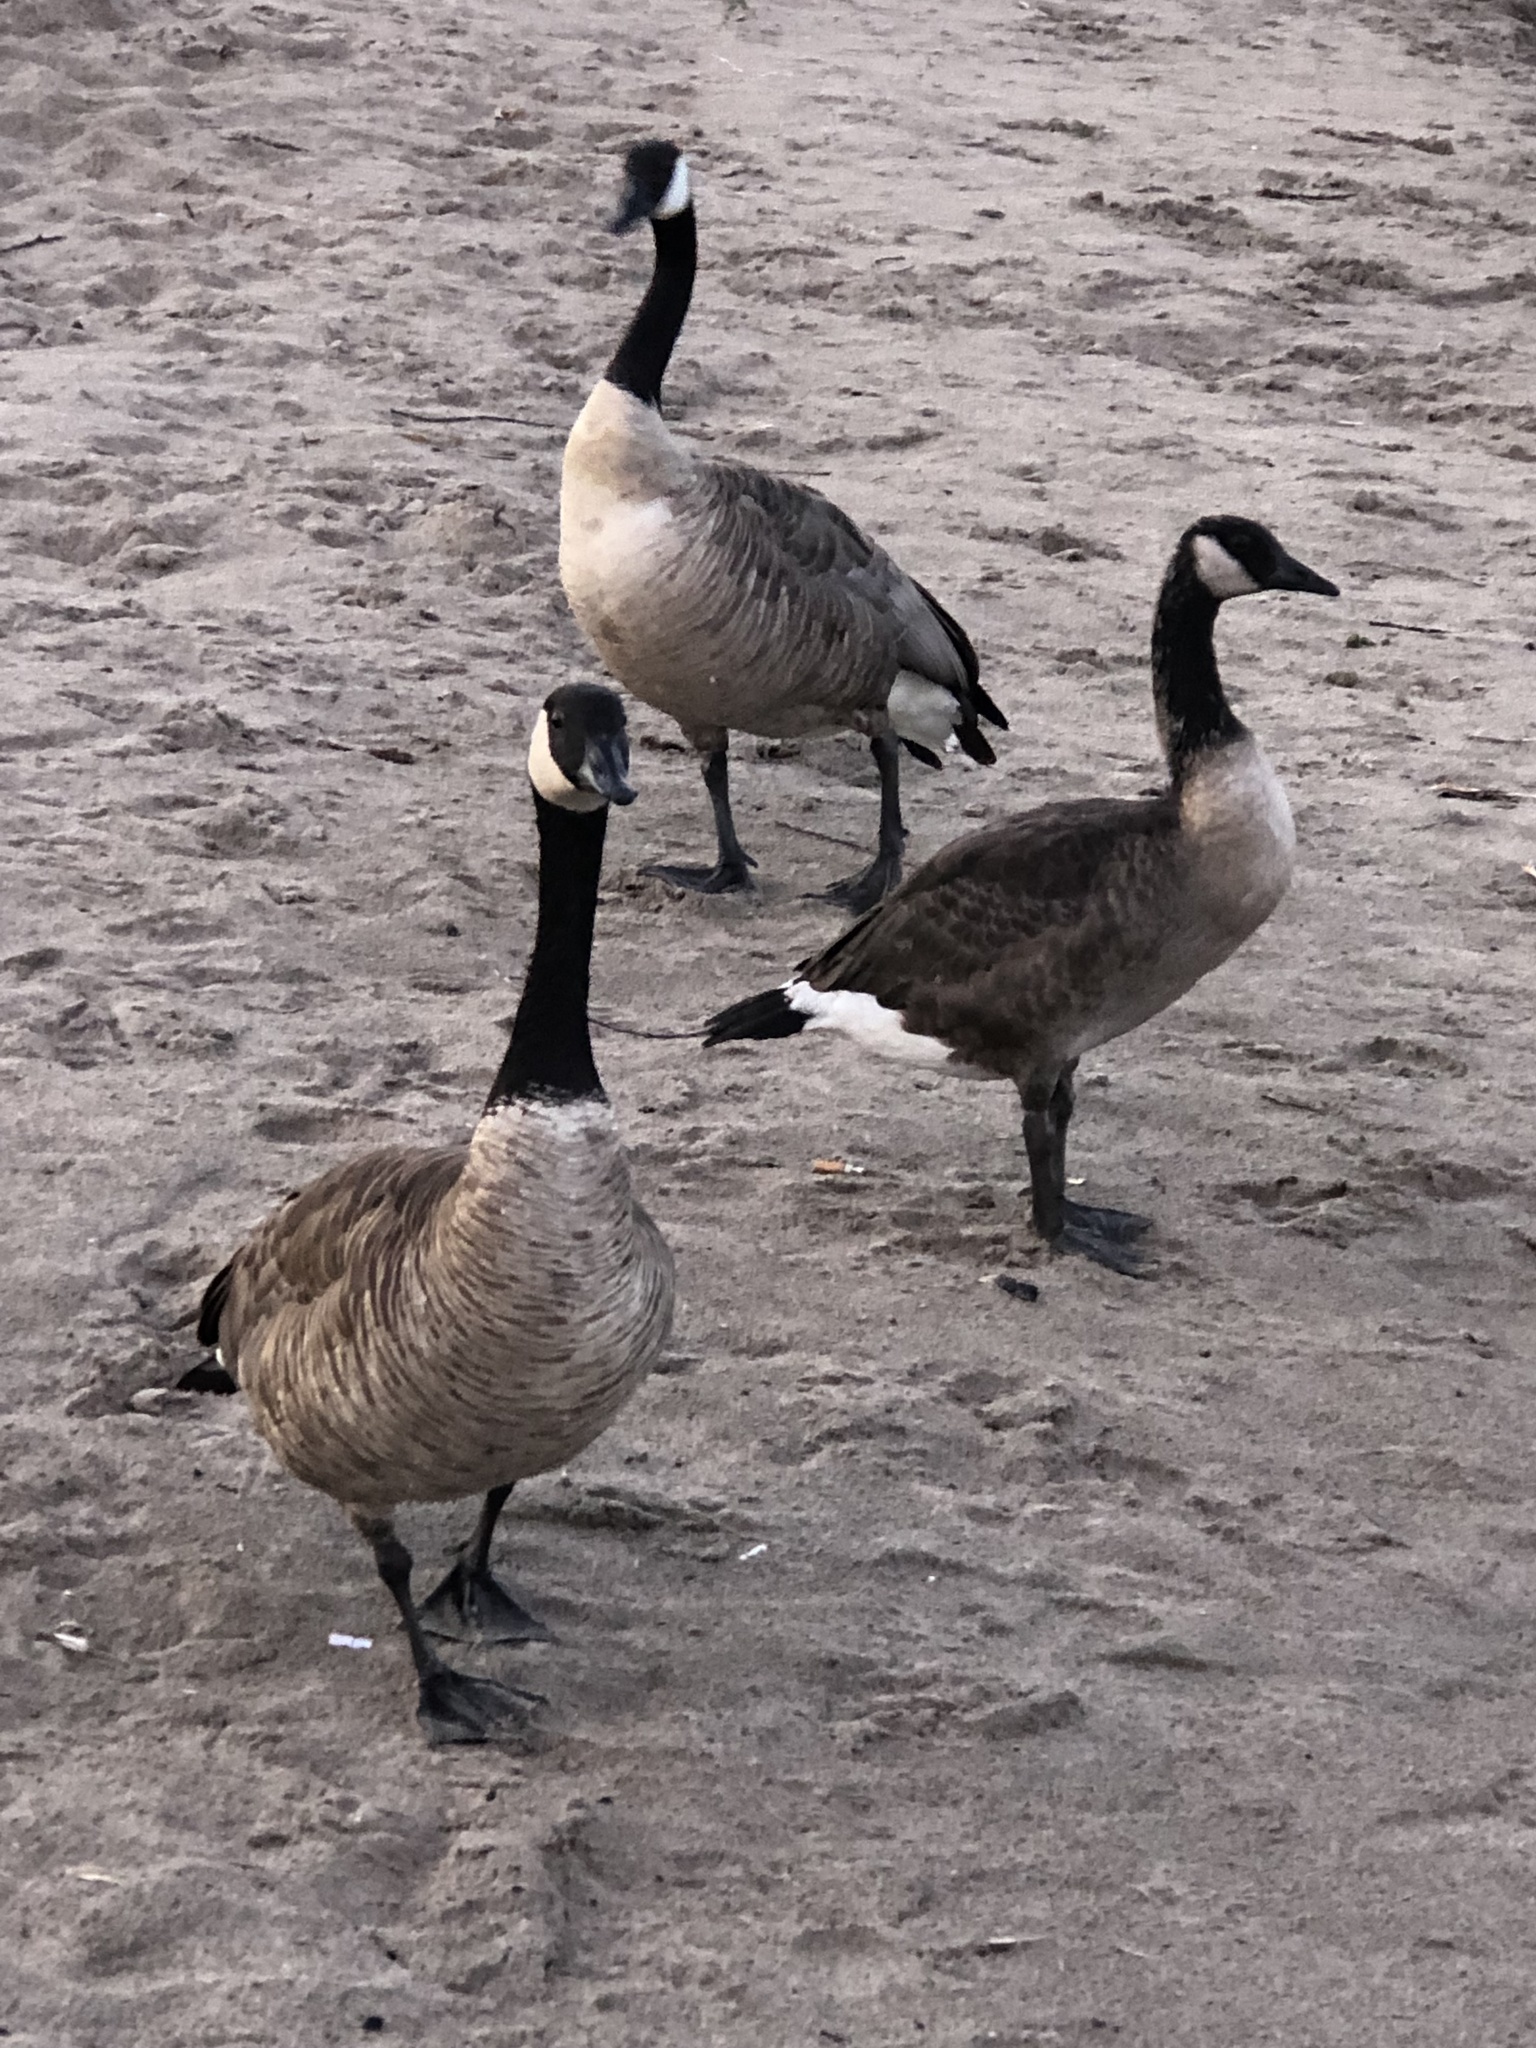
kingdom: Animalia
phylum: Chordata
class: Aves
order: Anseriformes
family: Anatidae
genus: Branta
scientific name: Branta canadensis
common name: Canada goose
